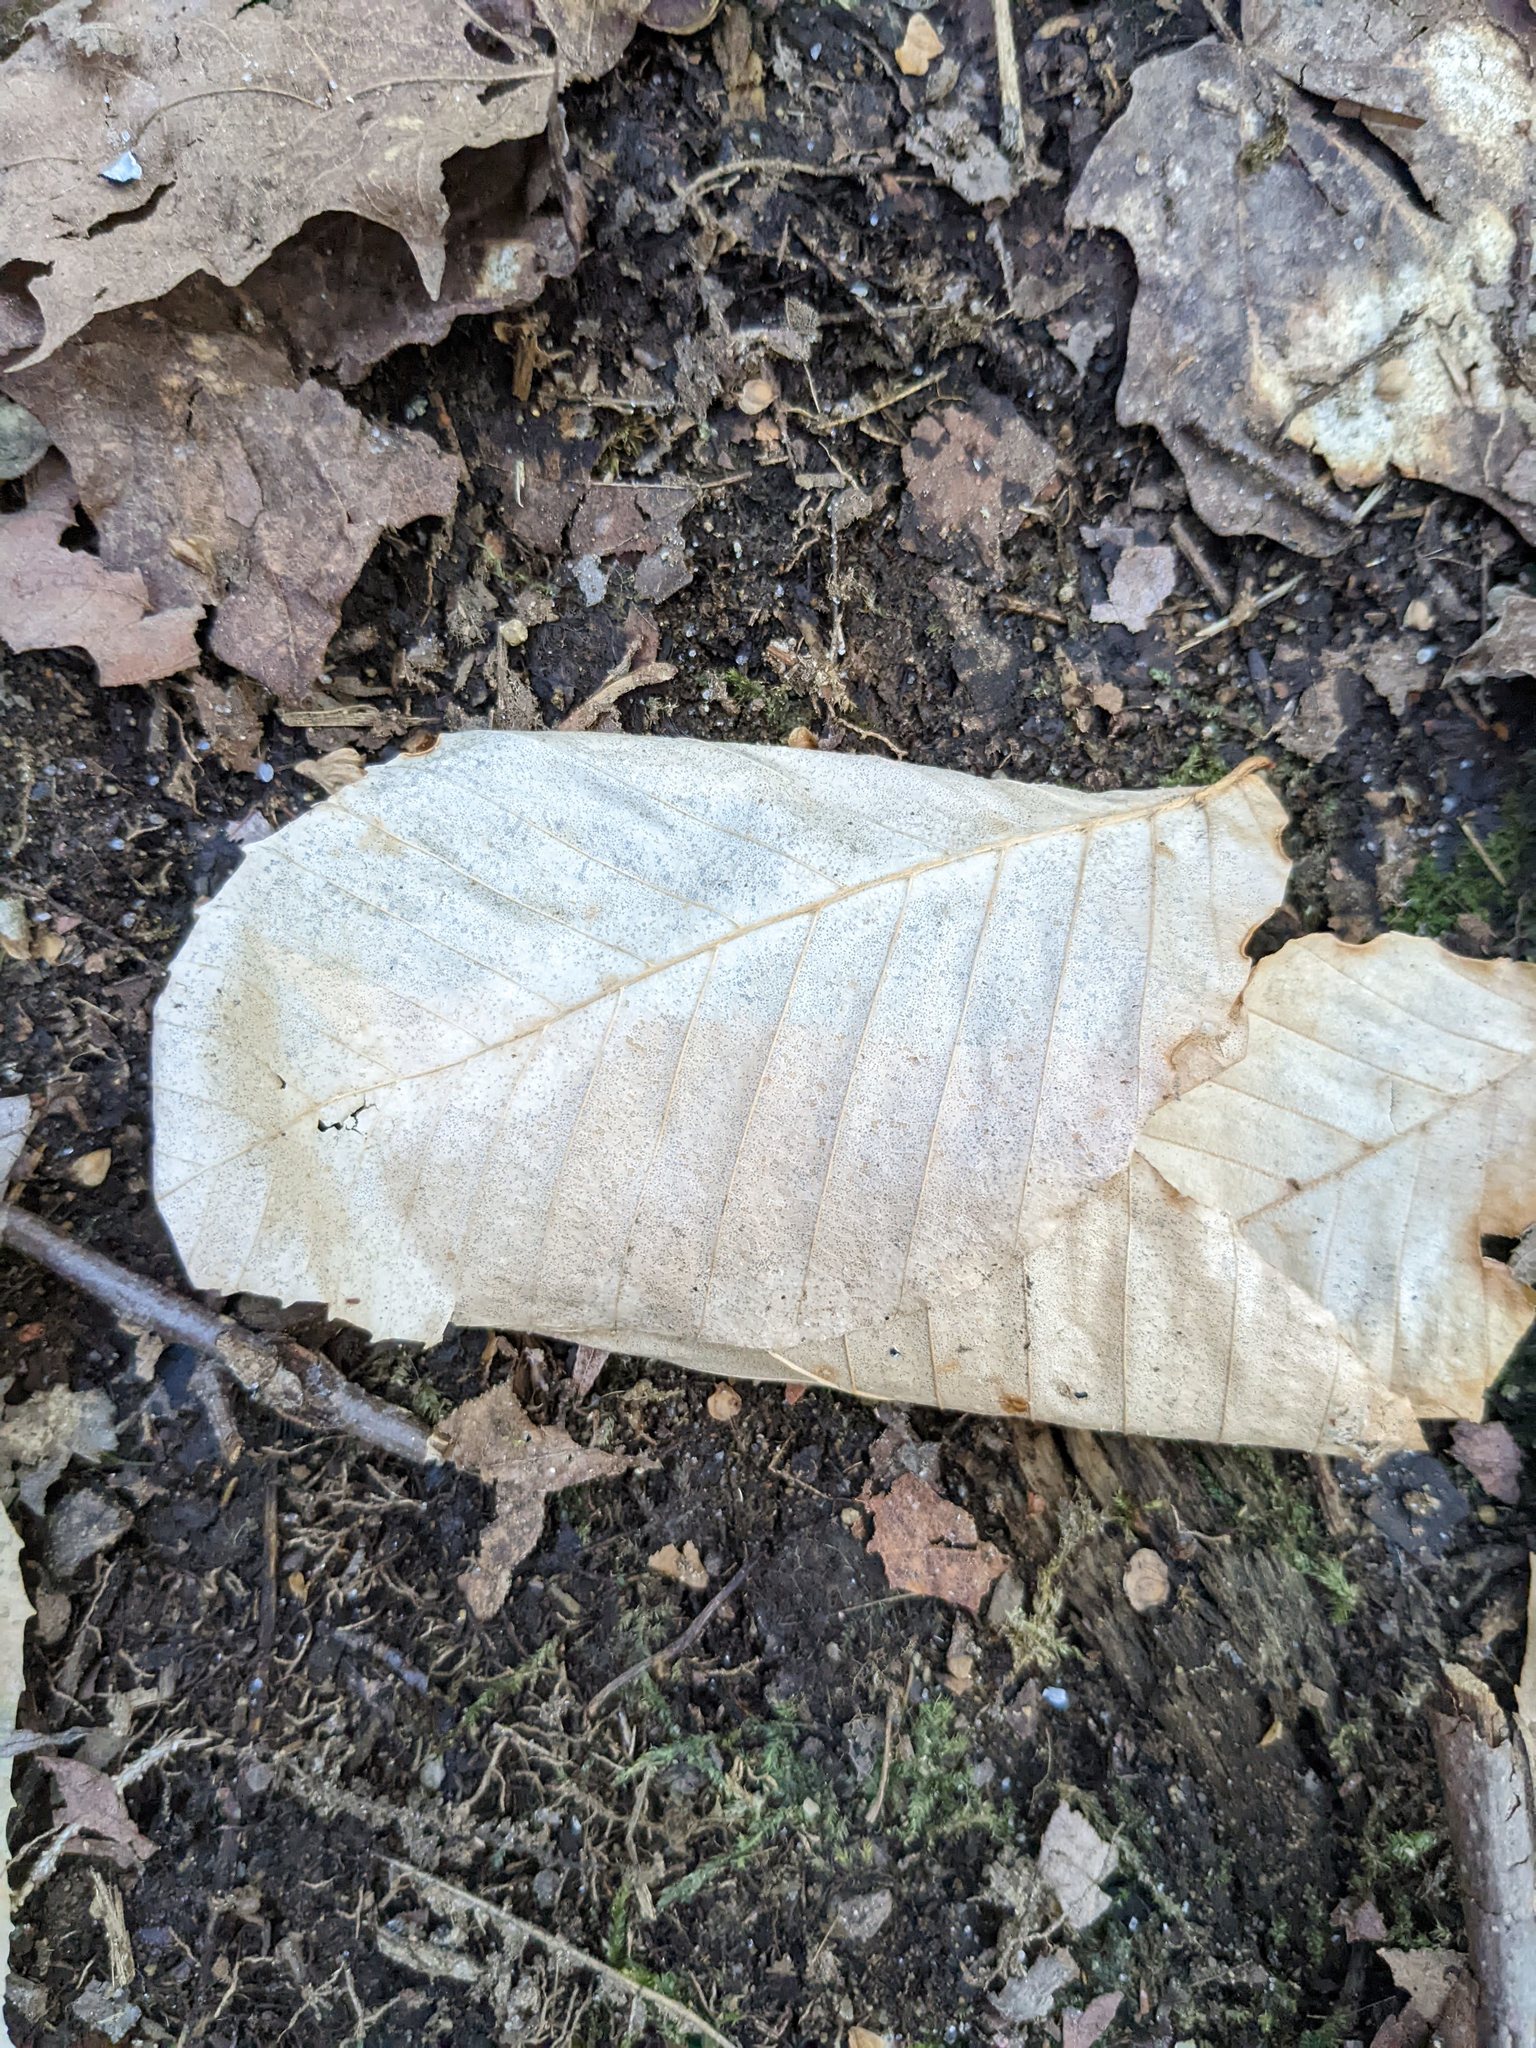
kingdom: Plantae
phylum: Tracheophyta
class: Magnoliopsida
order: Fagales
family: Fagaceae
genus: Fagus
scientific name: Fagus grandifolia
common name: American beech
